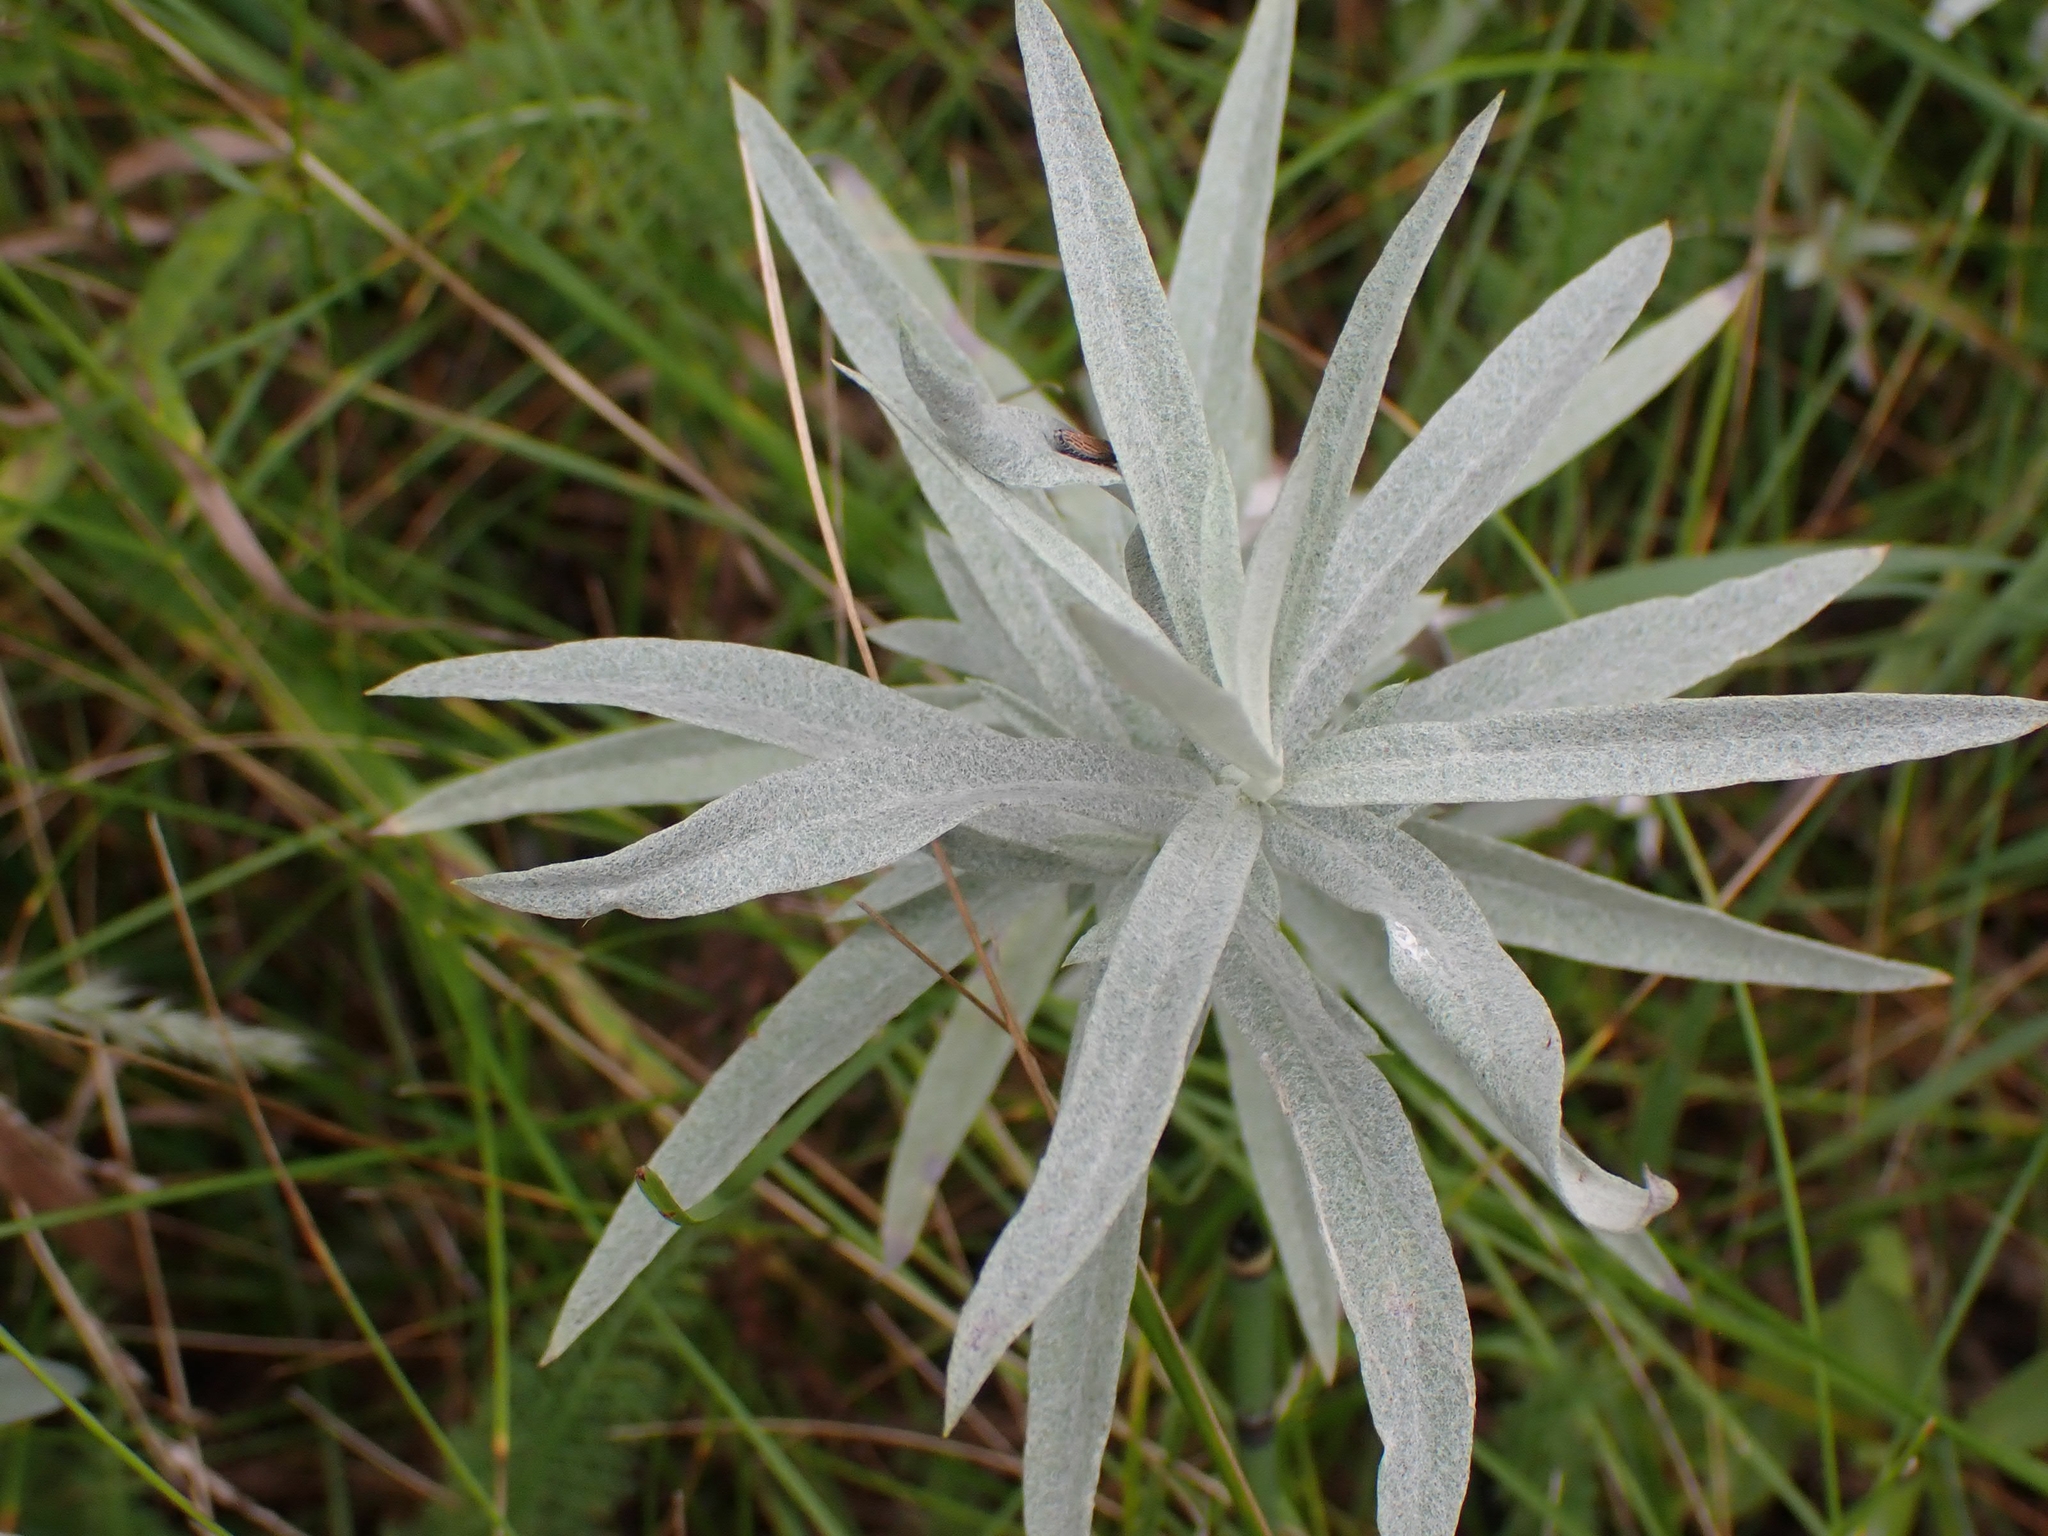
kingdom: Plantae
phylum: Tracheophyta
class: Magnoliopsida
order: Asterales
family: Asteraceae
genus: Artemisia
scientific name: Artemisia ludoviciana
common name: Western mugwort
